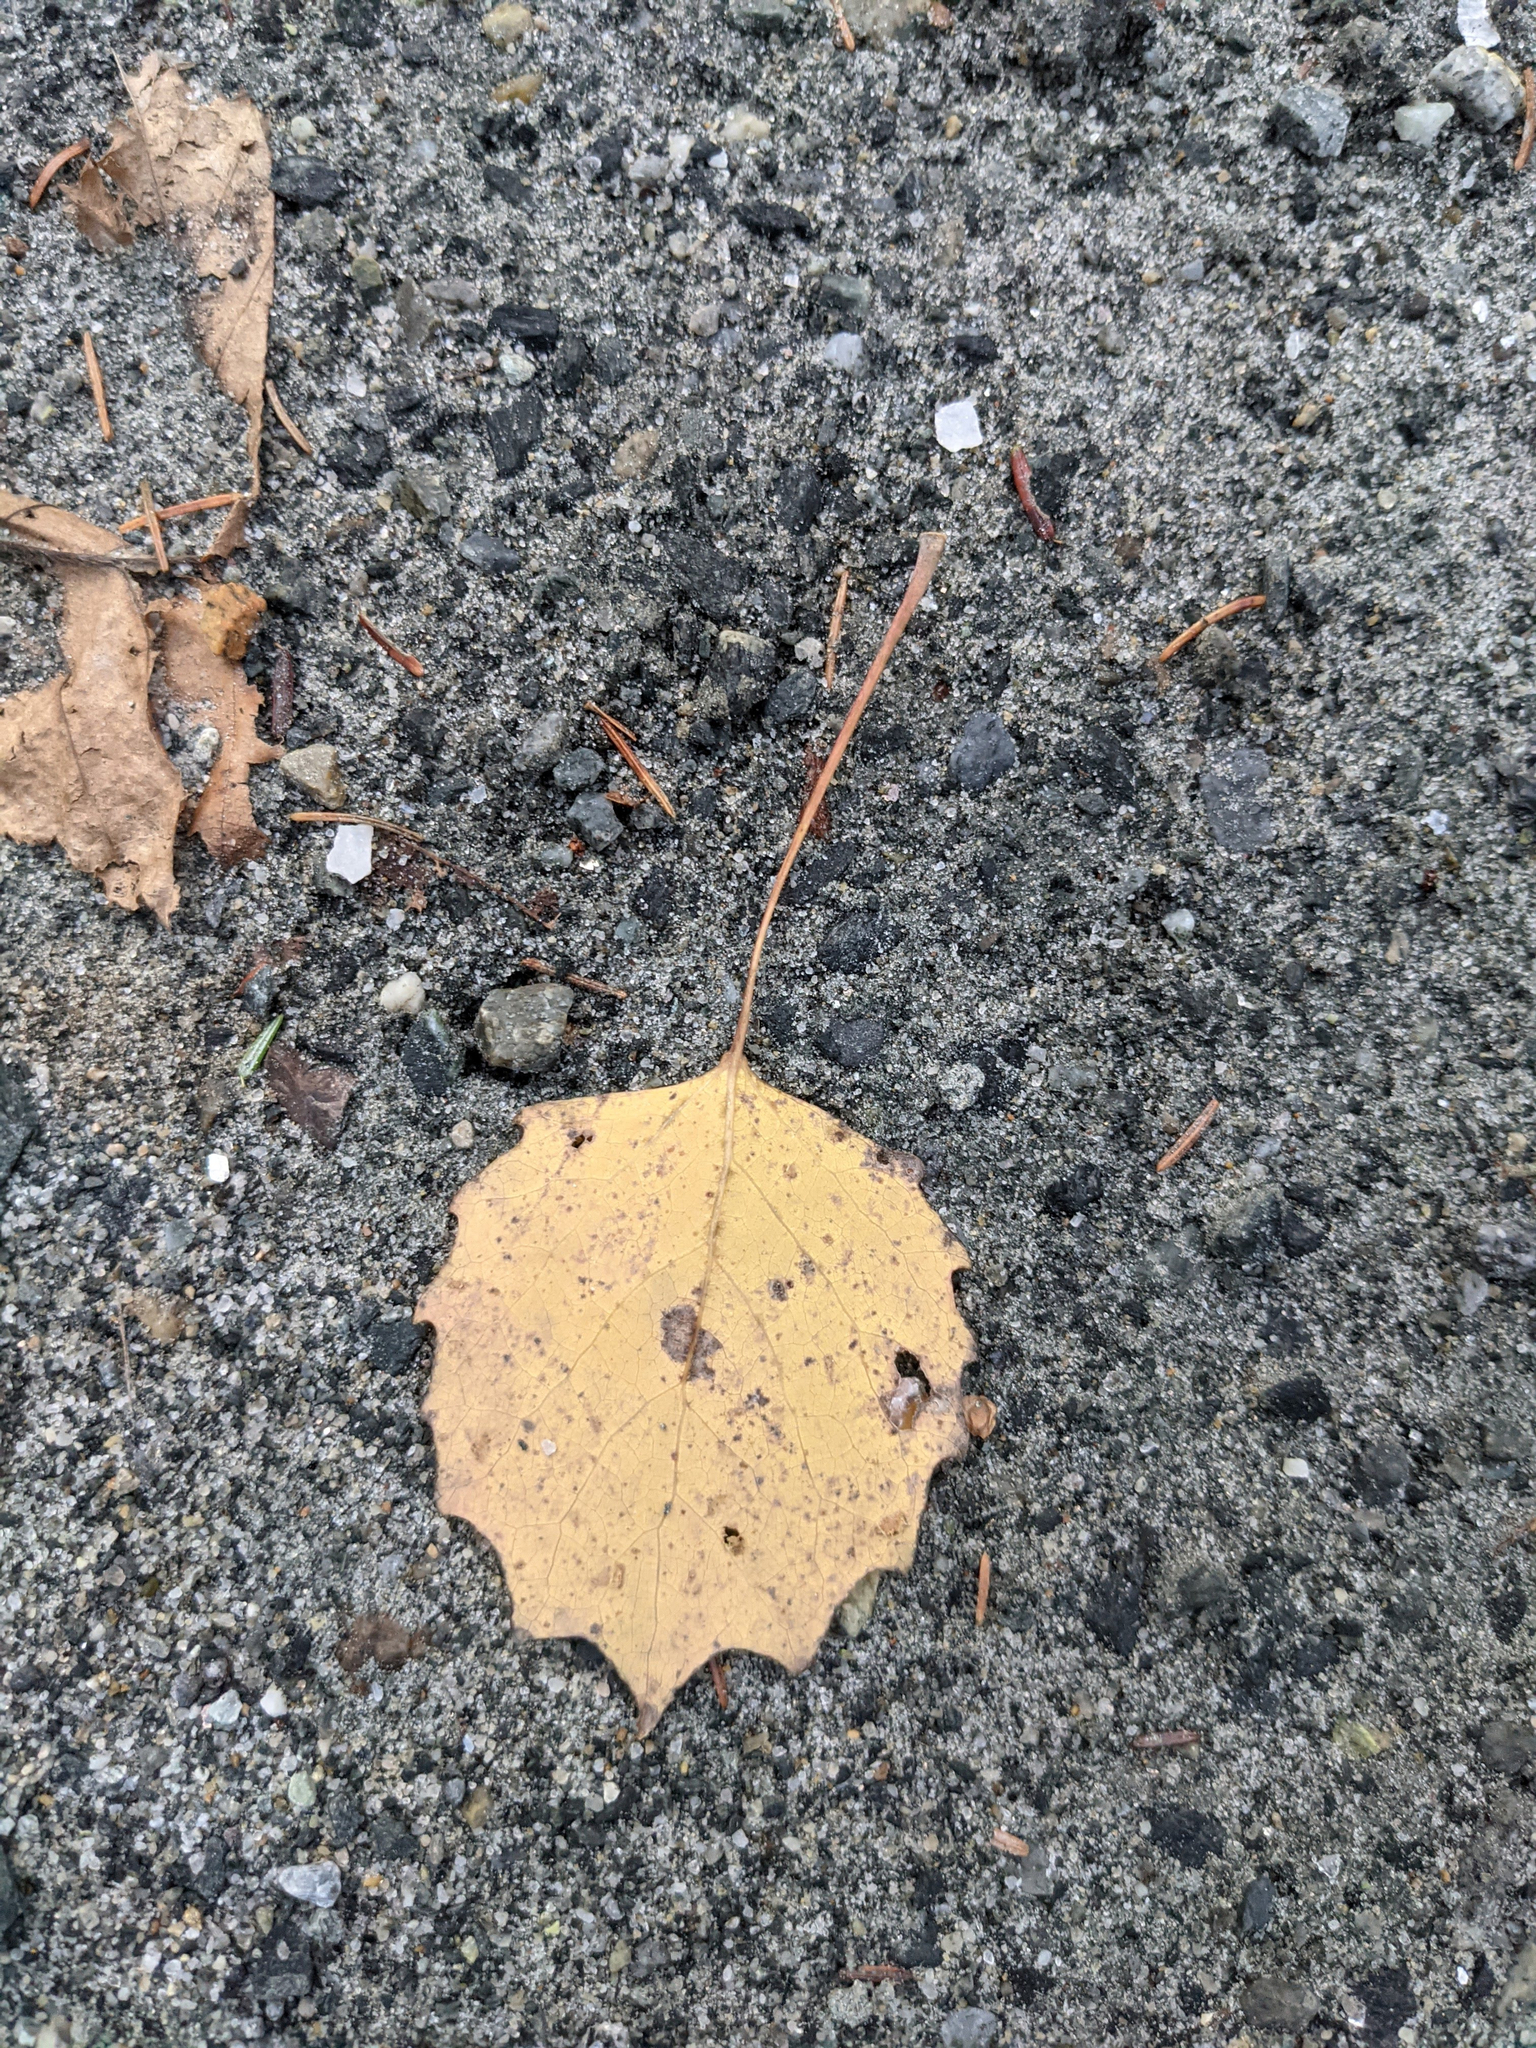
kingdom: Plantae
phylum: Tracheophyta
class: Magnoliopsida
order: Malpighiales
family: Salicaceae
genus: Populus
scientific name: Populus grandidentata
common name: Bigtooth aspen
